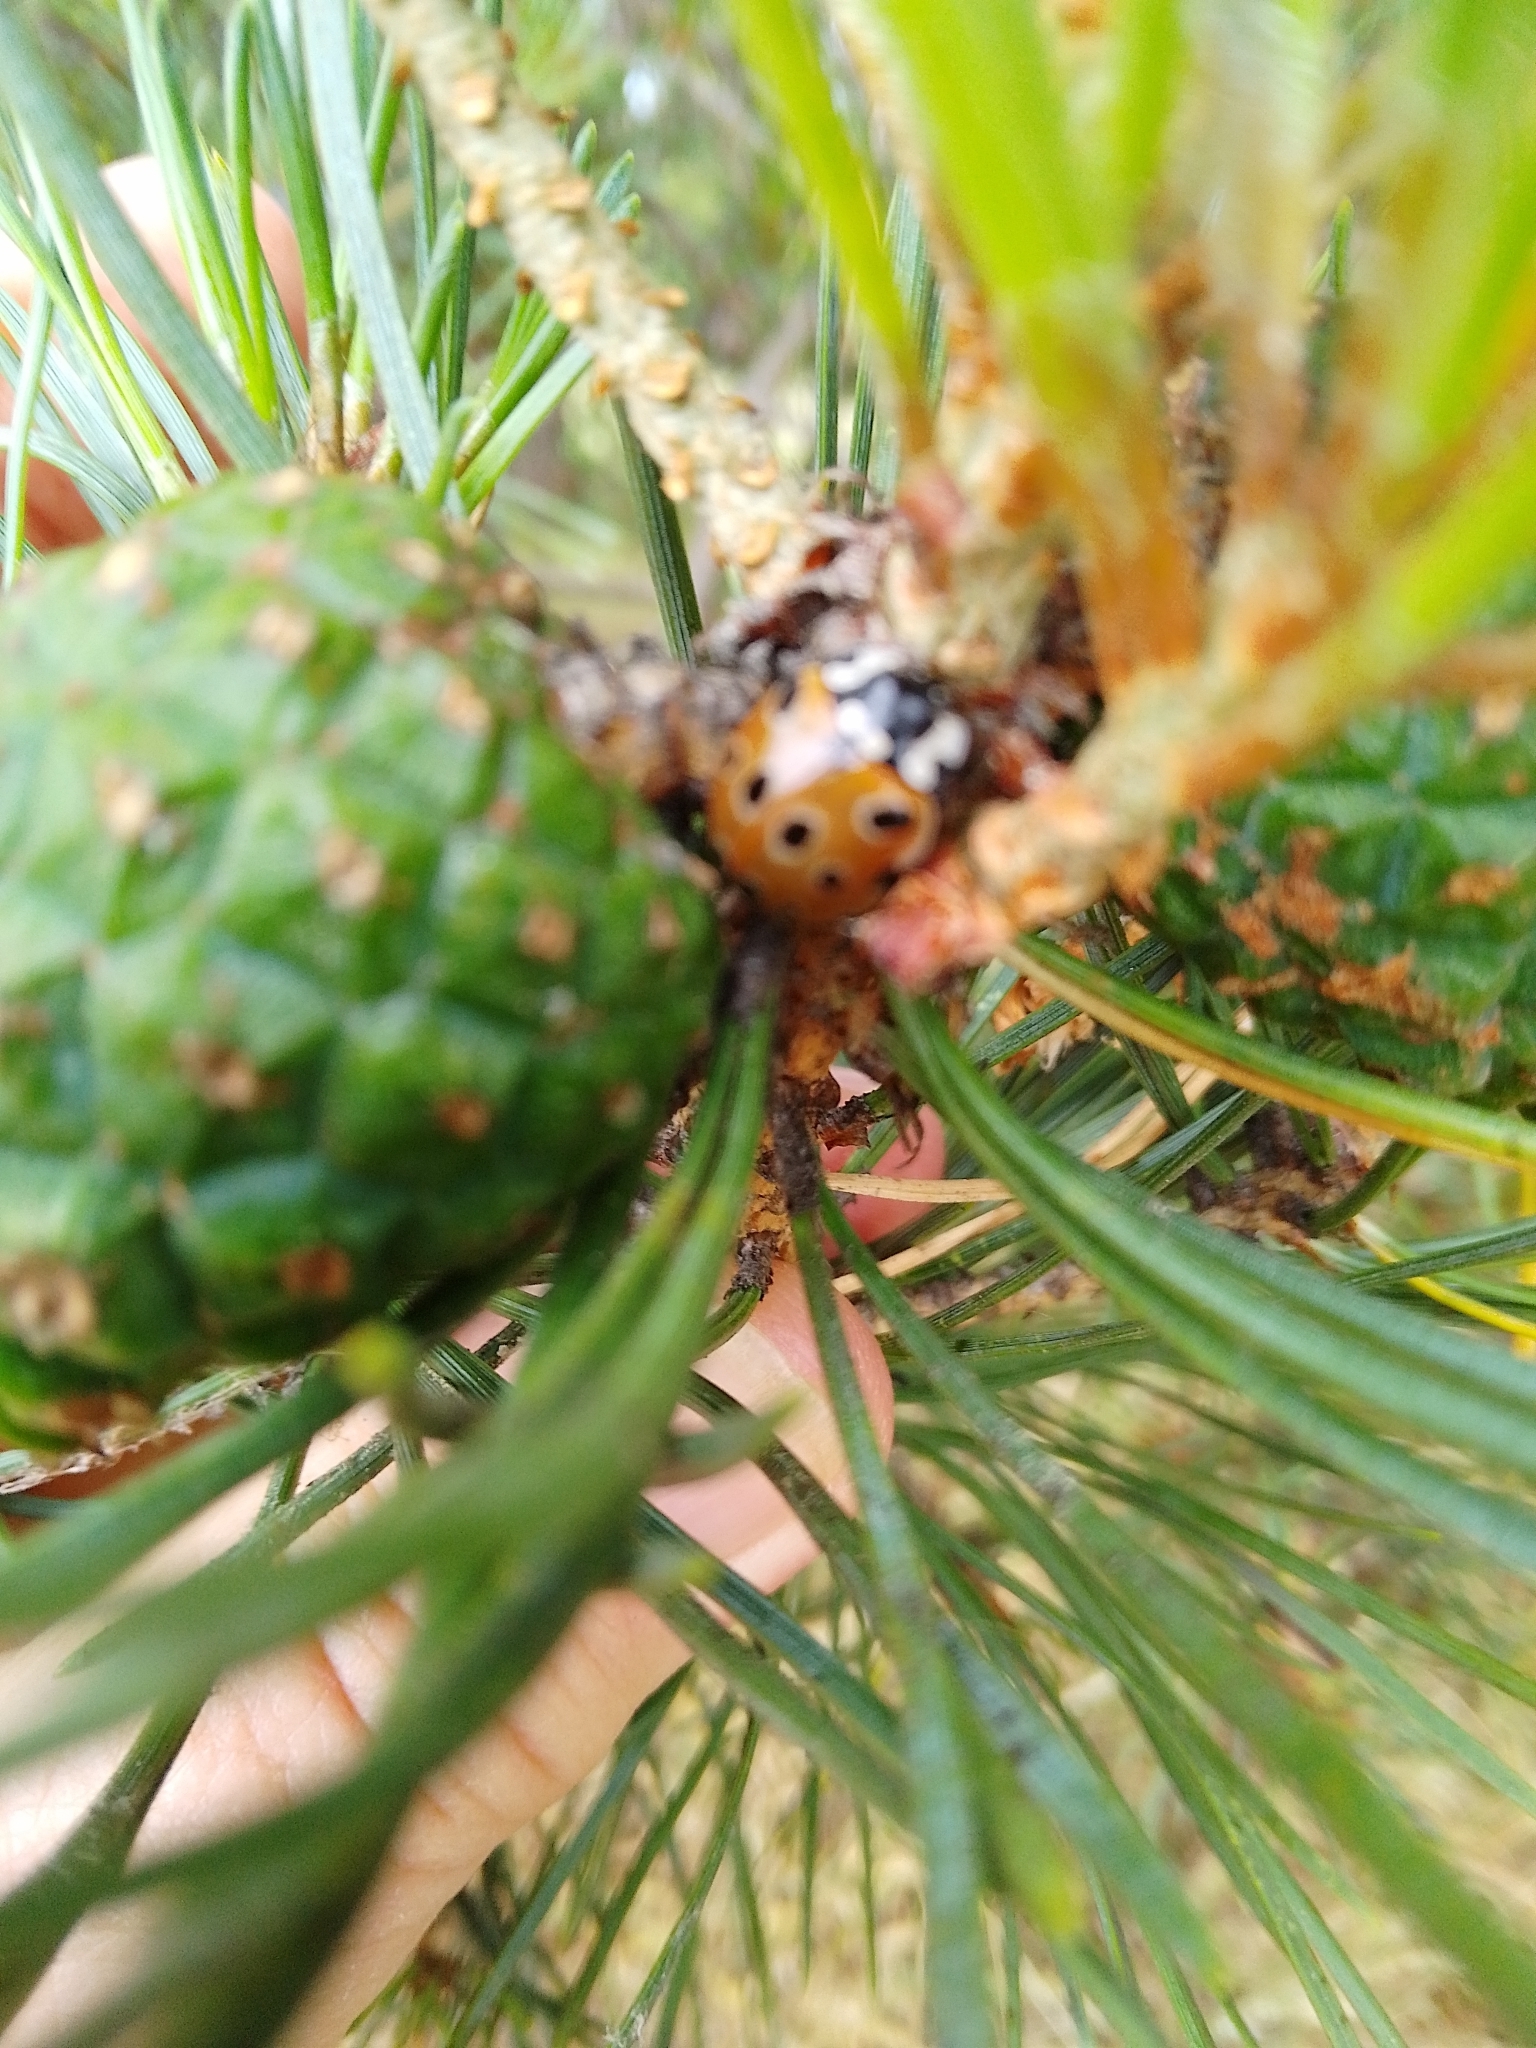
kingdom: Animalia
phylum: Arthropoda
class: Insecta
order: Coleoptera
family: Coccinellidae
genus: Anatis
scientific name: Anatis ocellata
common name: Eyed ladybird
